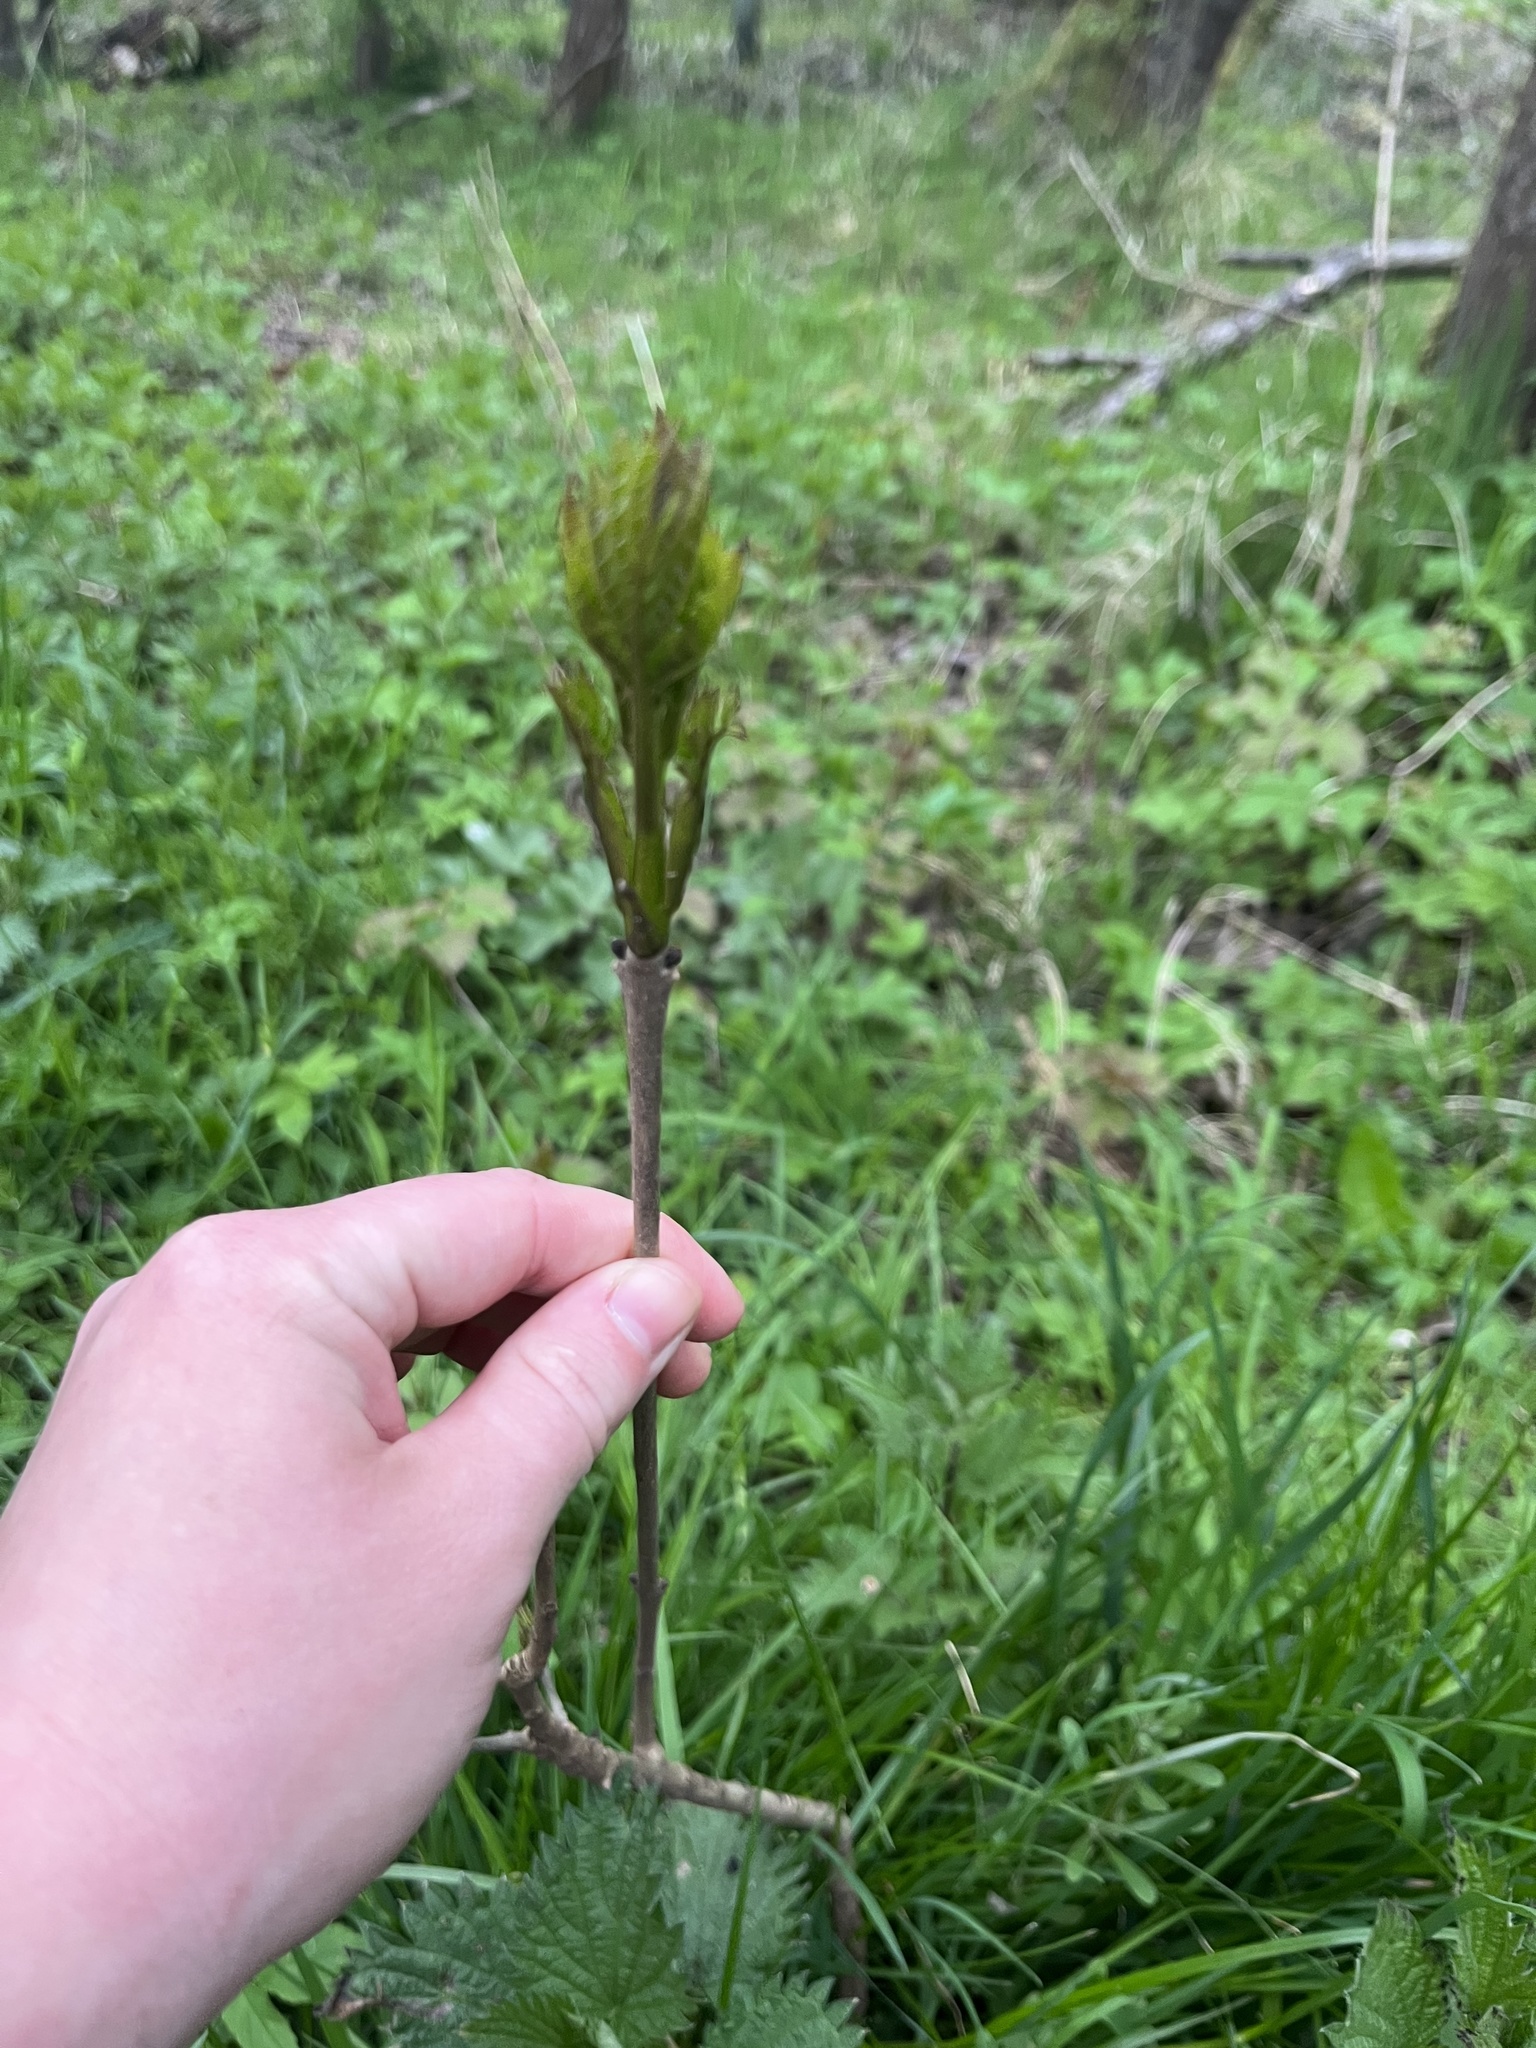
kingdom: Plantae
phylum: Tracheophyta
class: Magnoliopsida
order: Lamiales
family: Oleaceae
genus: Fraxinus
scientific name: Fraxinus excelsior
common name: European ash
